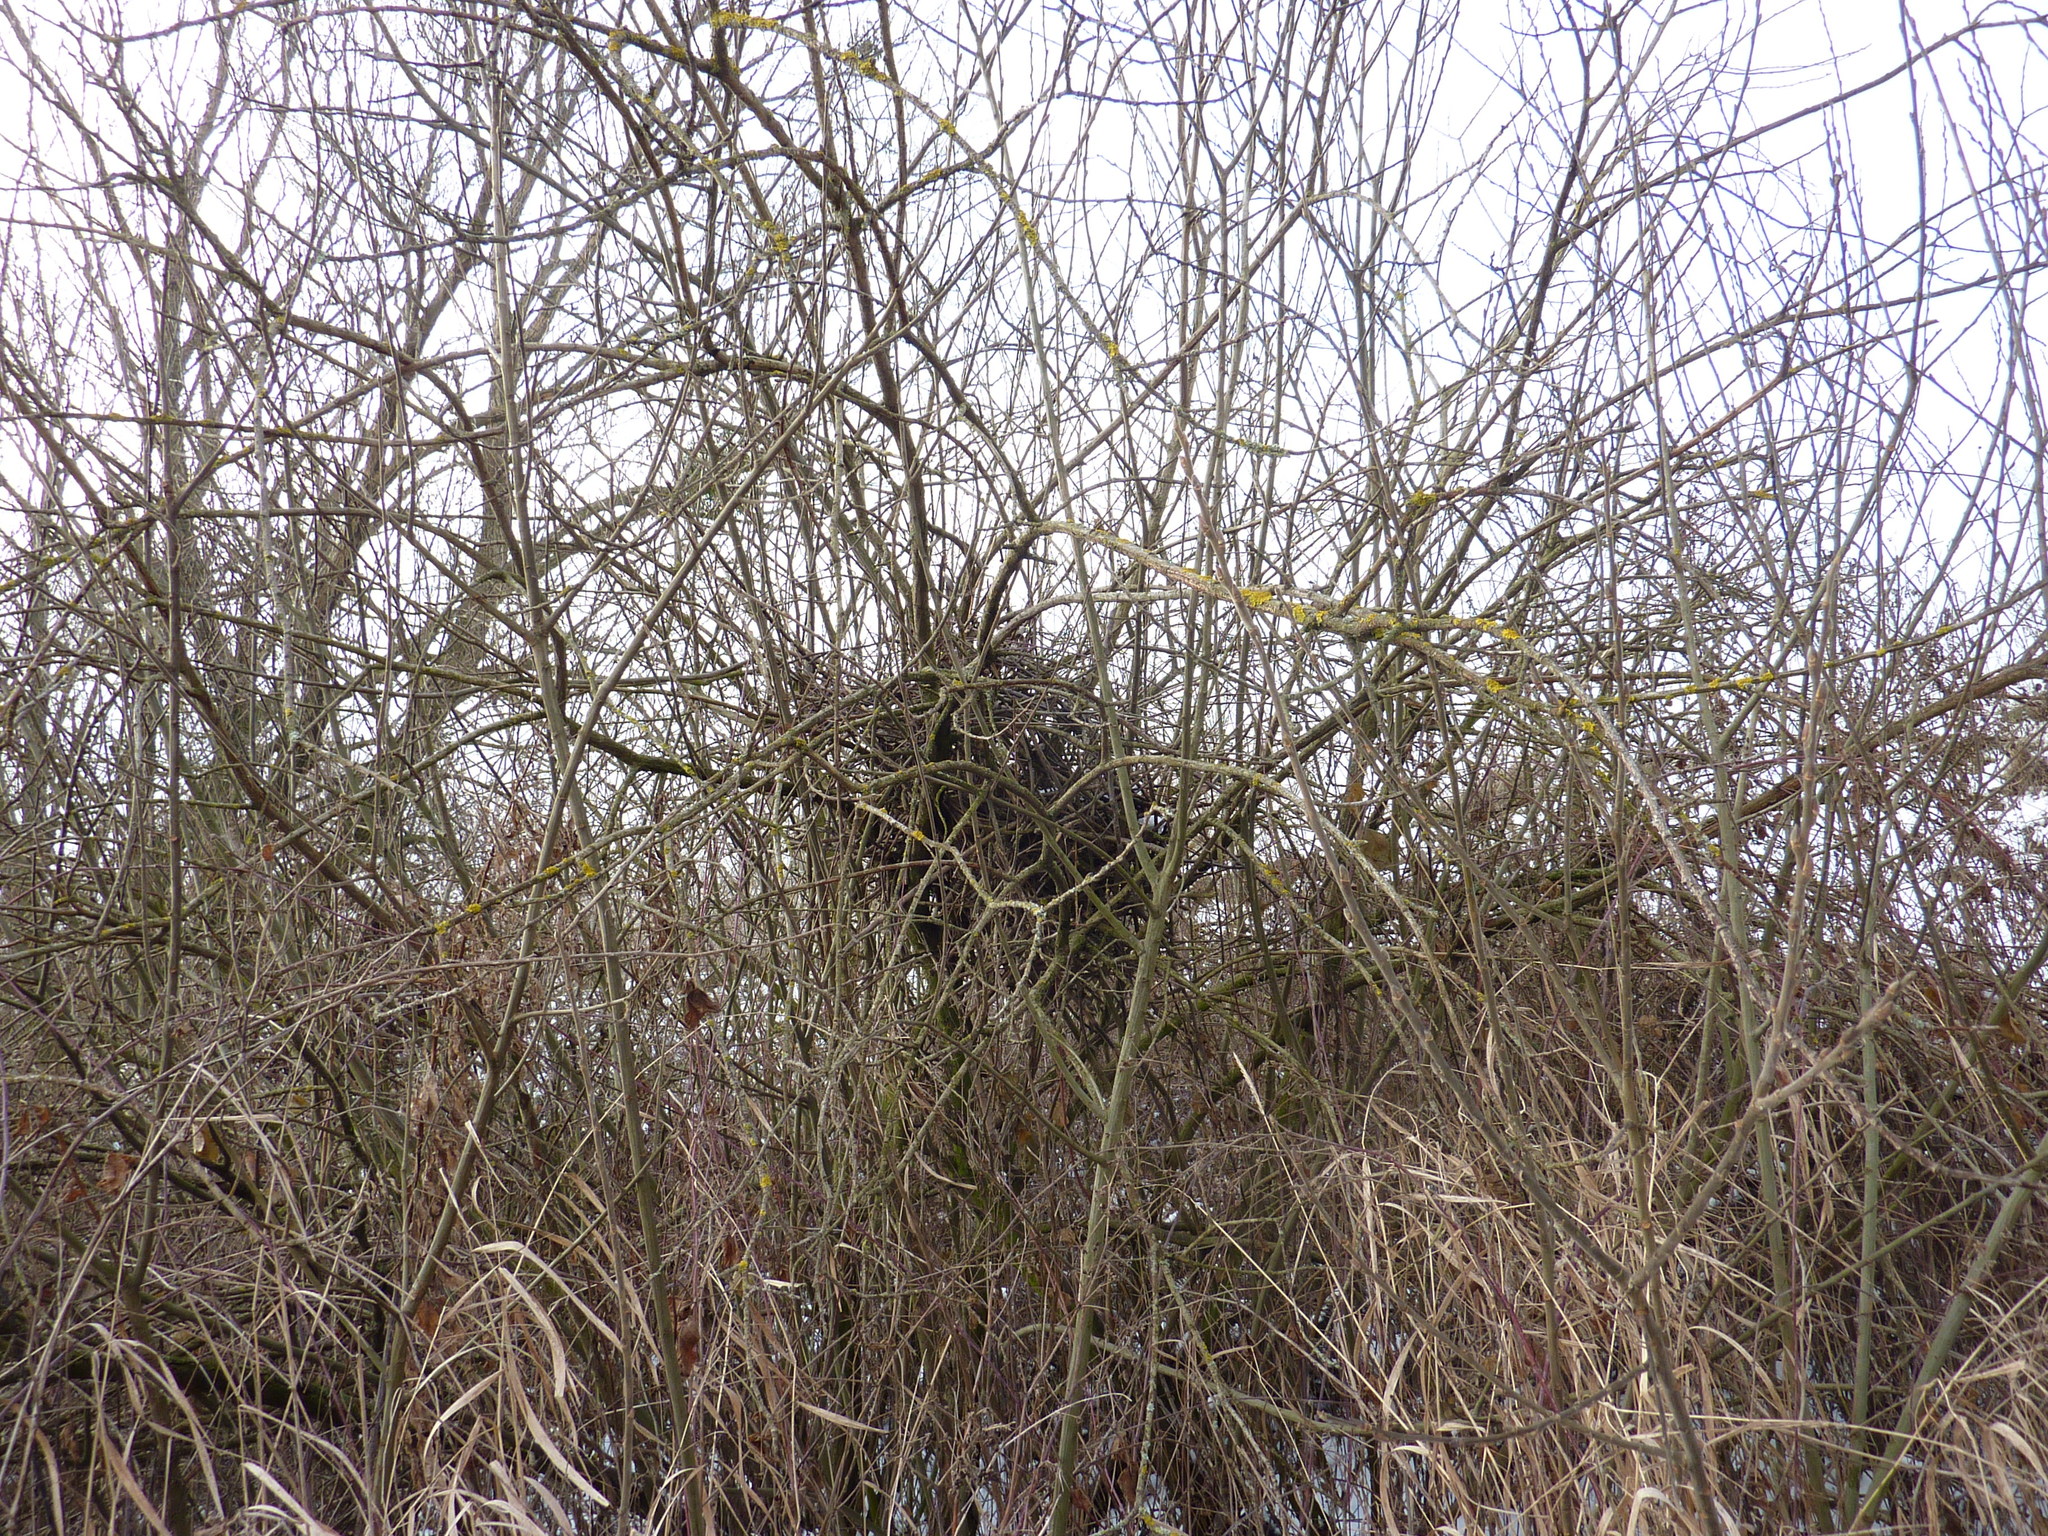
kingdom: Animalia
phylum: Chordata
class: Aves
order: Passeriformes
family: Corvidae
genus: Pica
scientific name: Pica pica
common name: Eurasian magpie
